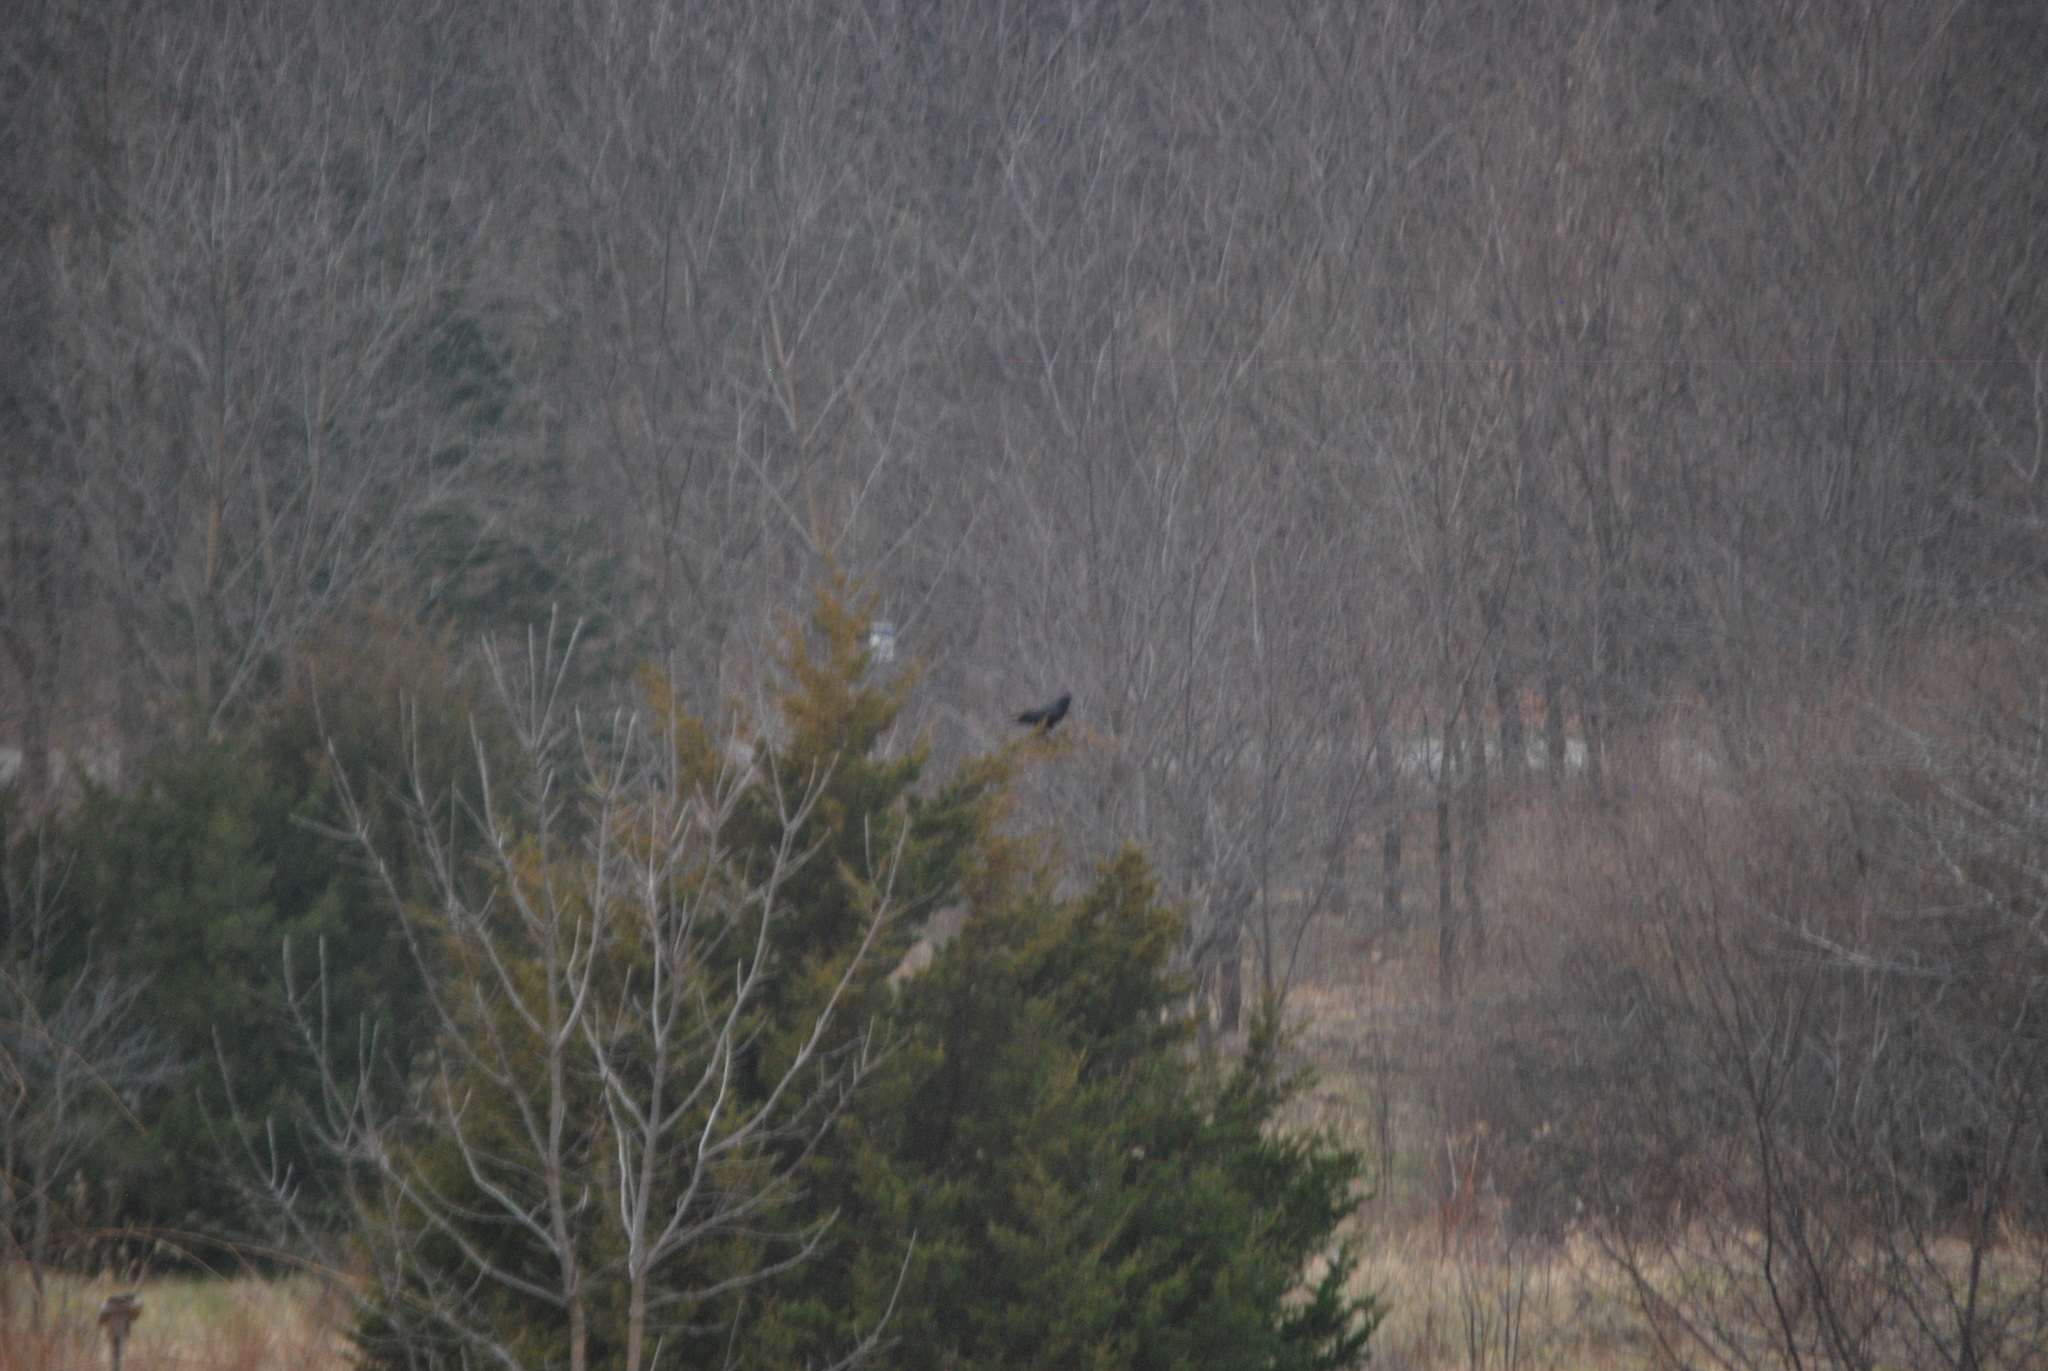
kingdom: Animalia
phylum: Chordata
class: Aves
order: Passeriformes
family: Corvidae
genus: Corvus
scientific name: Corvus brachyrhynchos
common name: American crow
